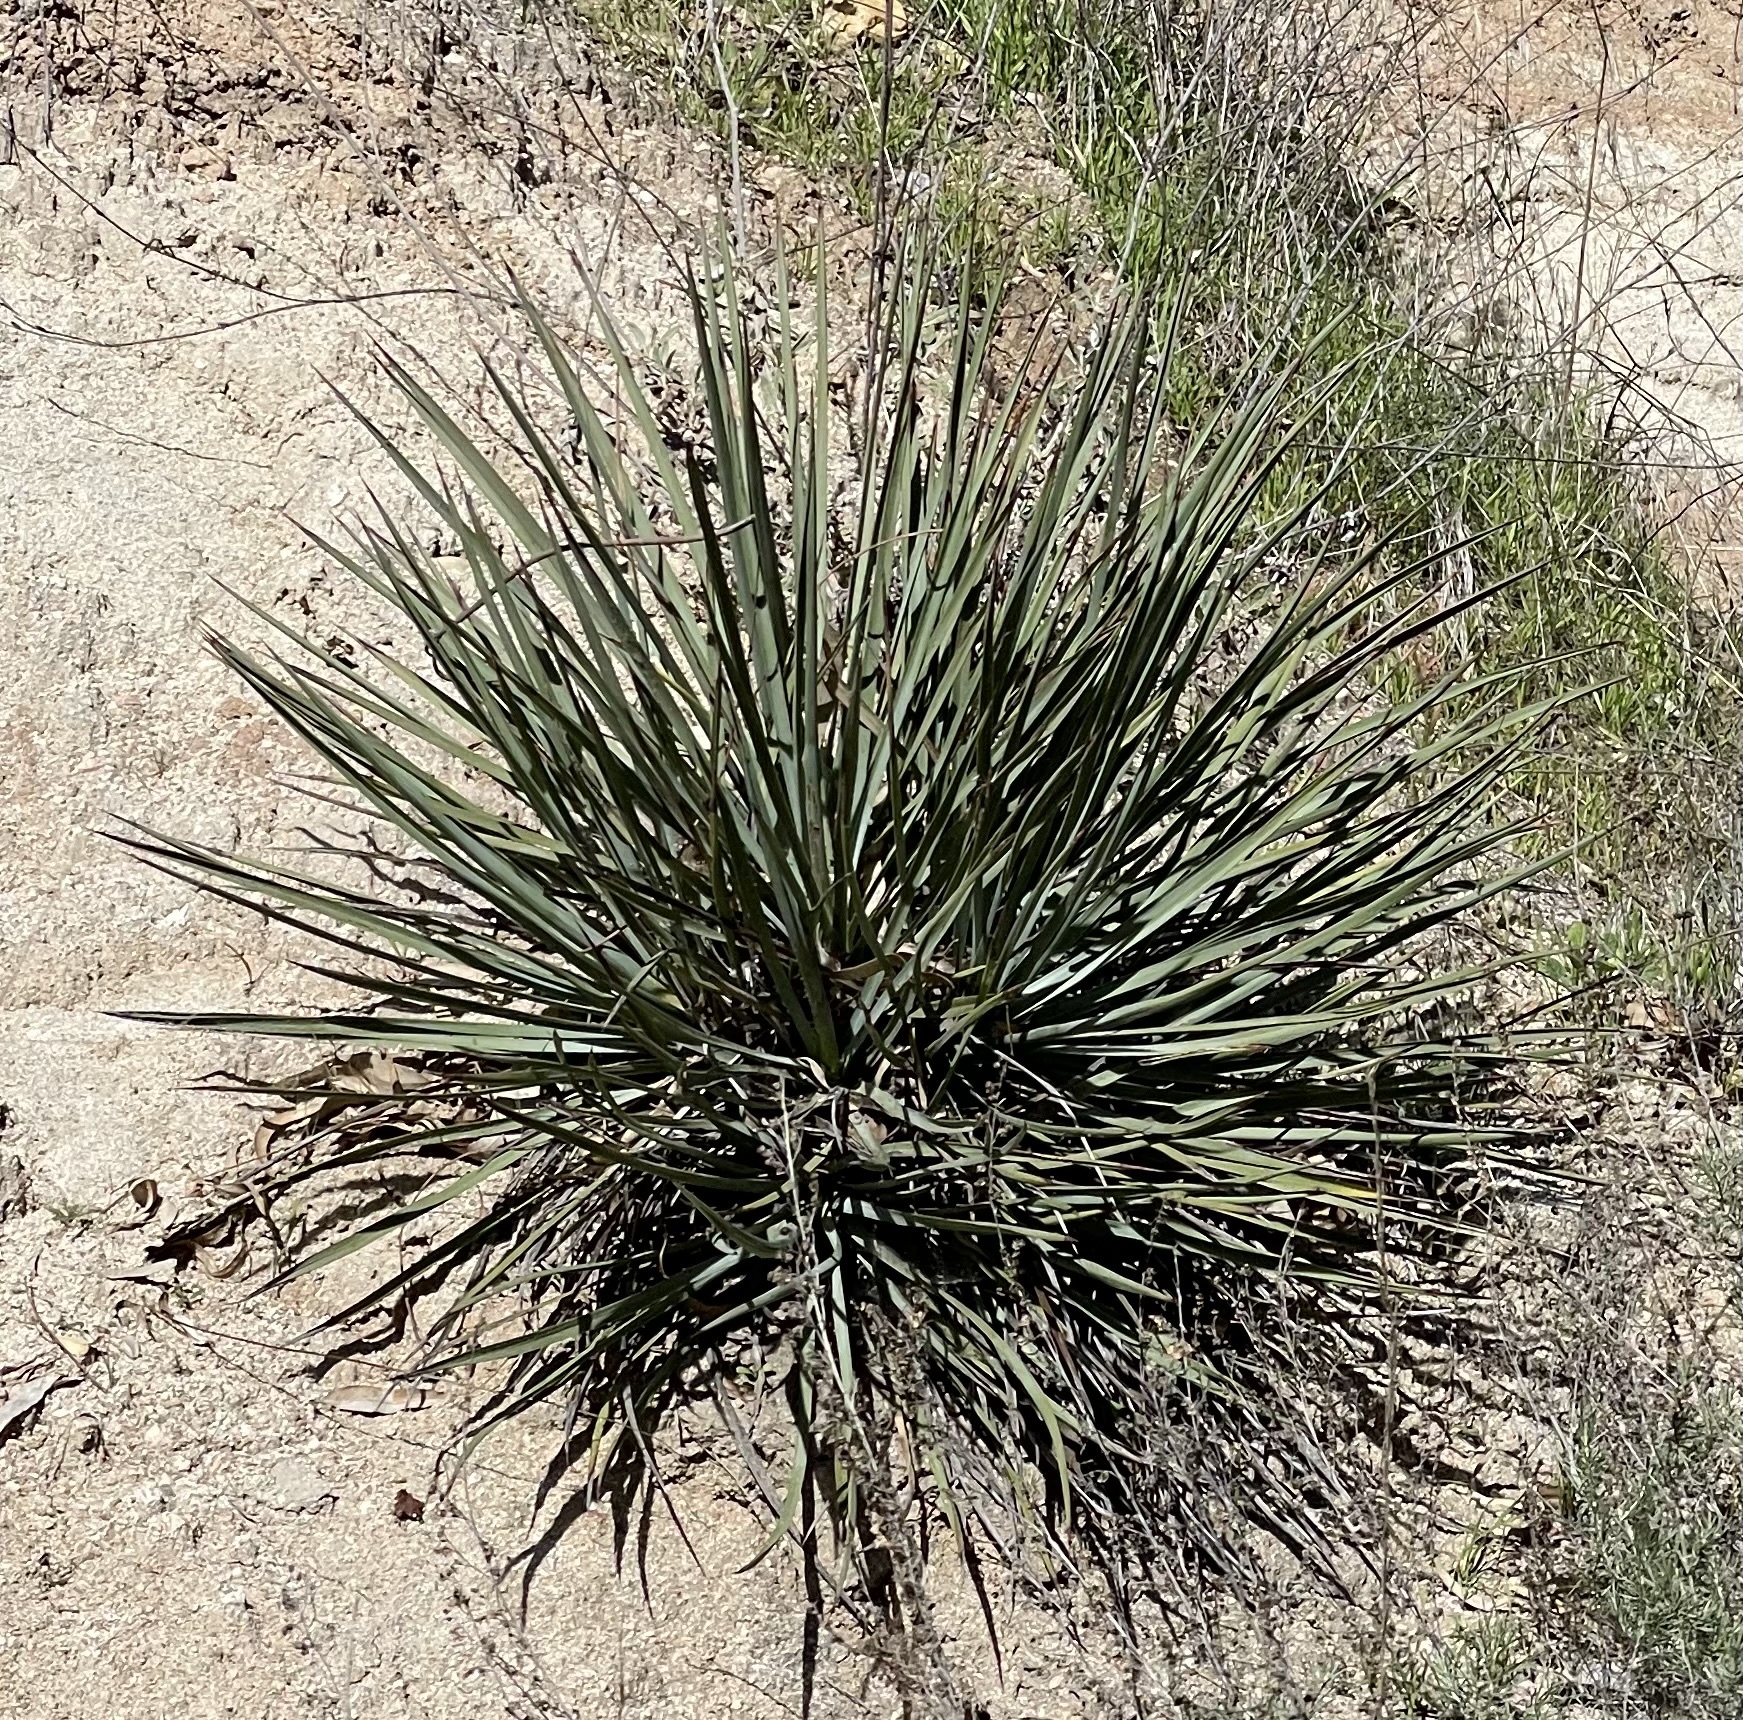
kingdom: Plantae
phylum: Tracheophyta
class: Liliopsida
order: Asparagales
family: Asparagaceae
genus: Hesperoyucca
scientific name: Hesperoyucca whipplei
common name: Our lord's-candle
